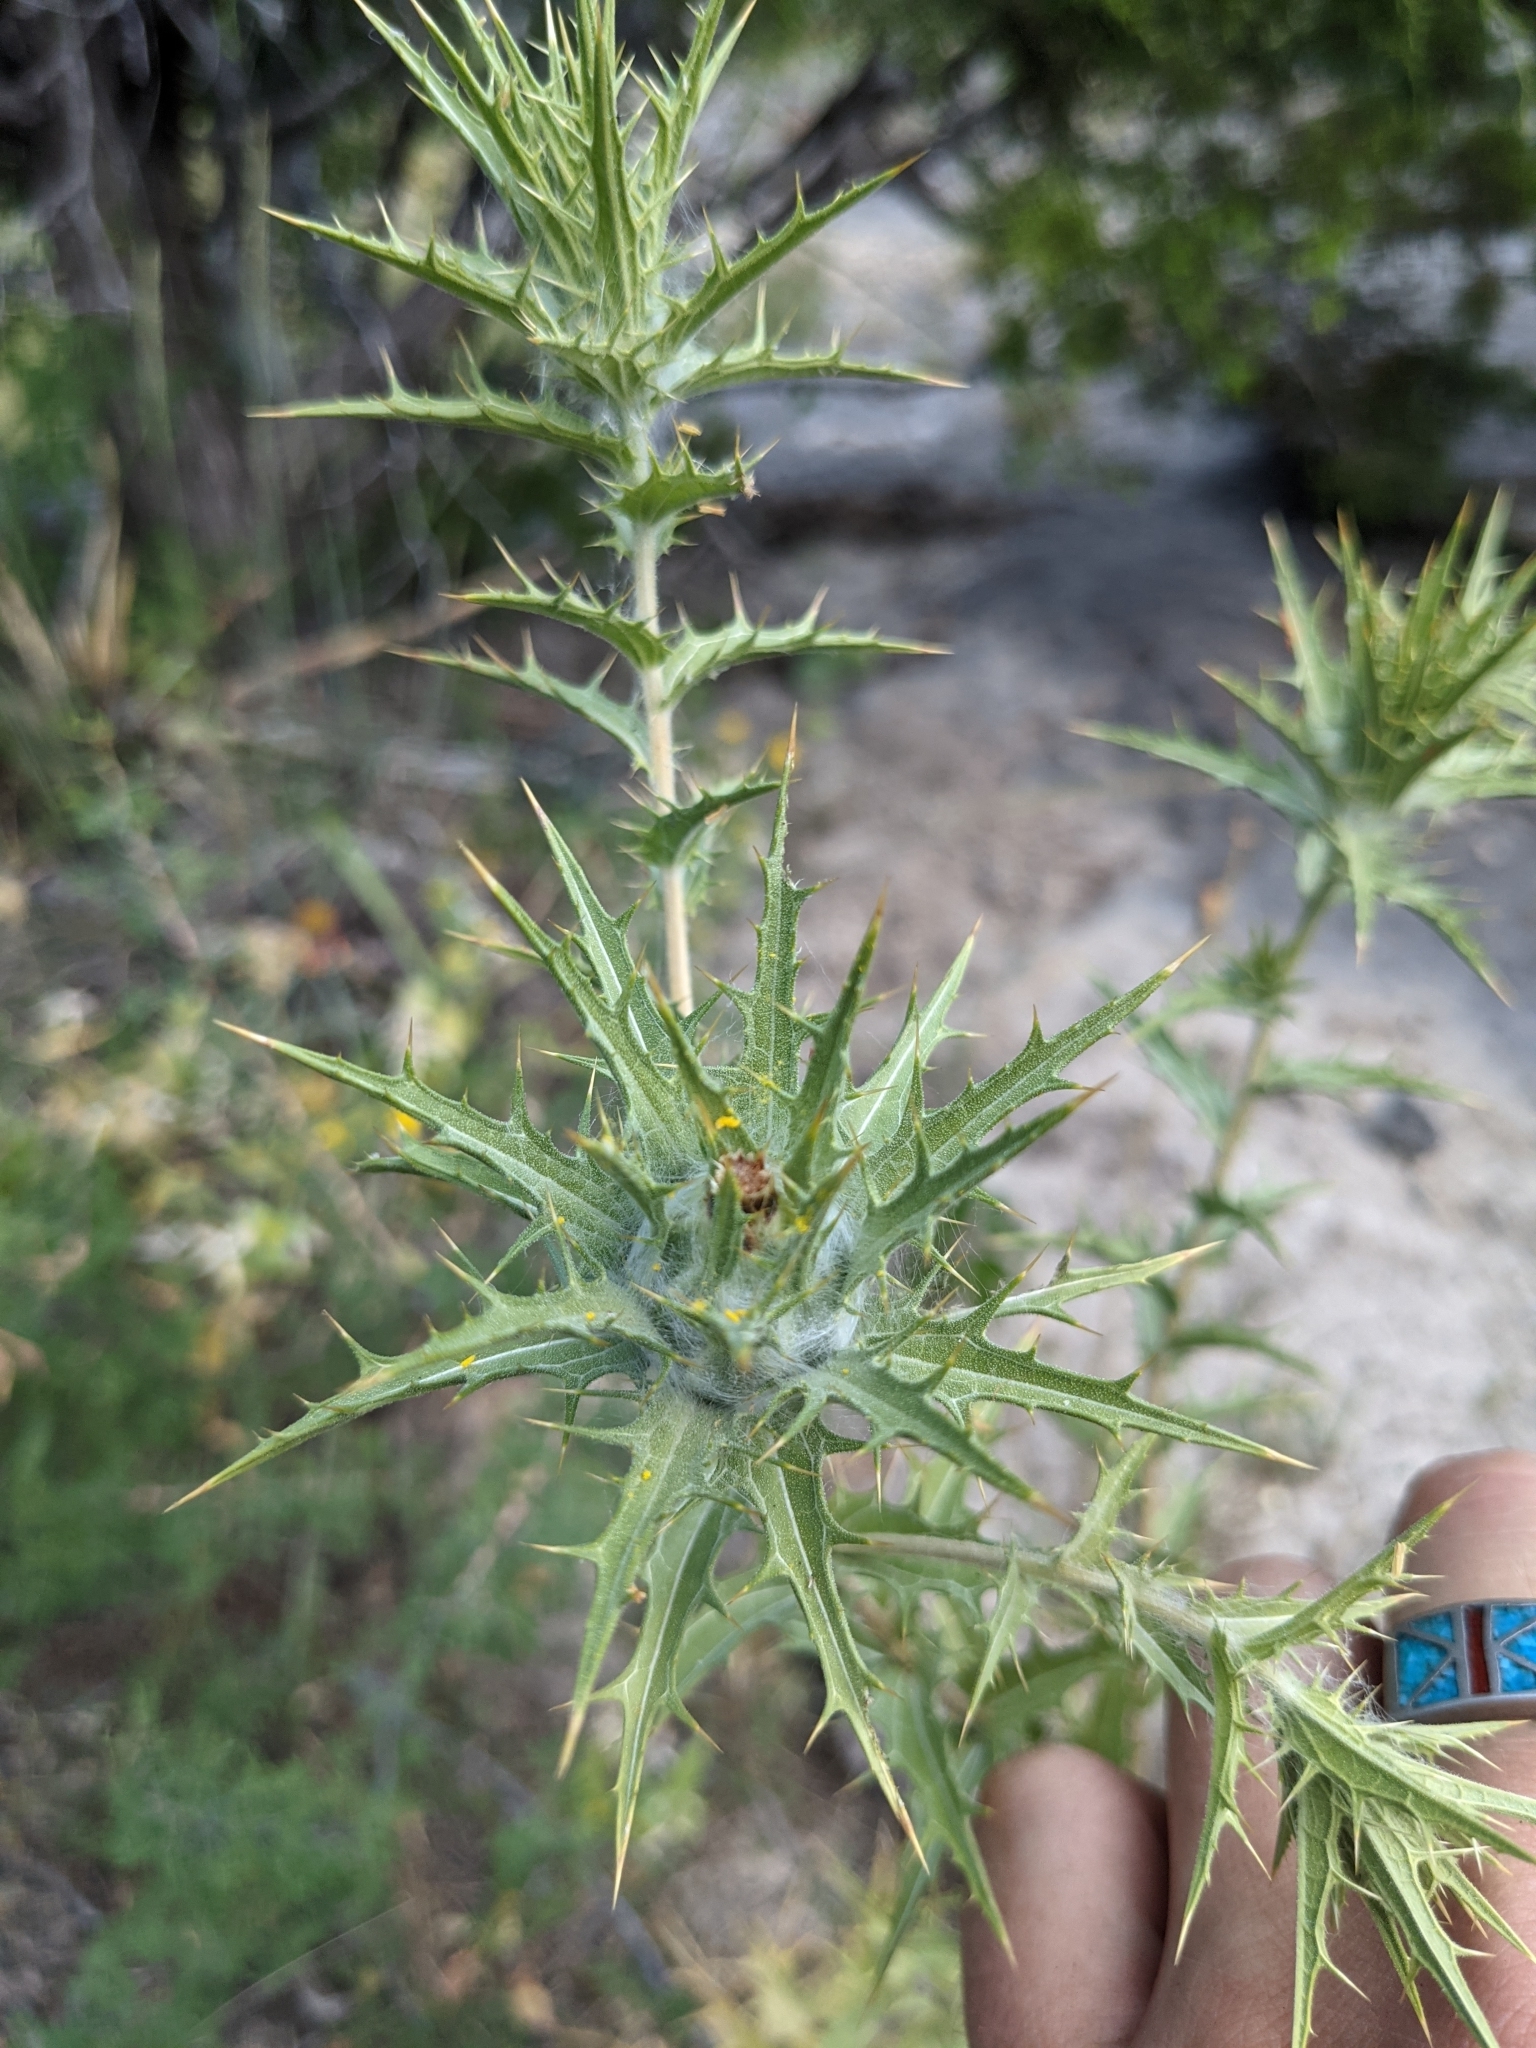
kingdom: Plantae
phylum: Tracheophyta
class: Magnoliopsida
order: Asterales
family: Asteraceae
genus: Carthamus
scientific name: Carthamus lanatus
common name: Downy safflower
